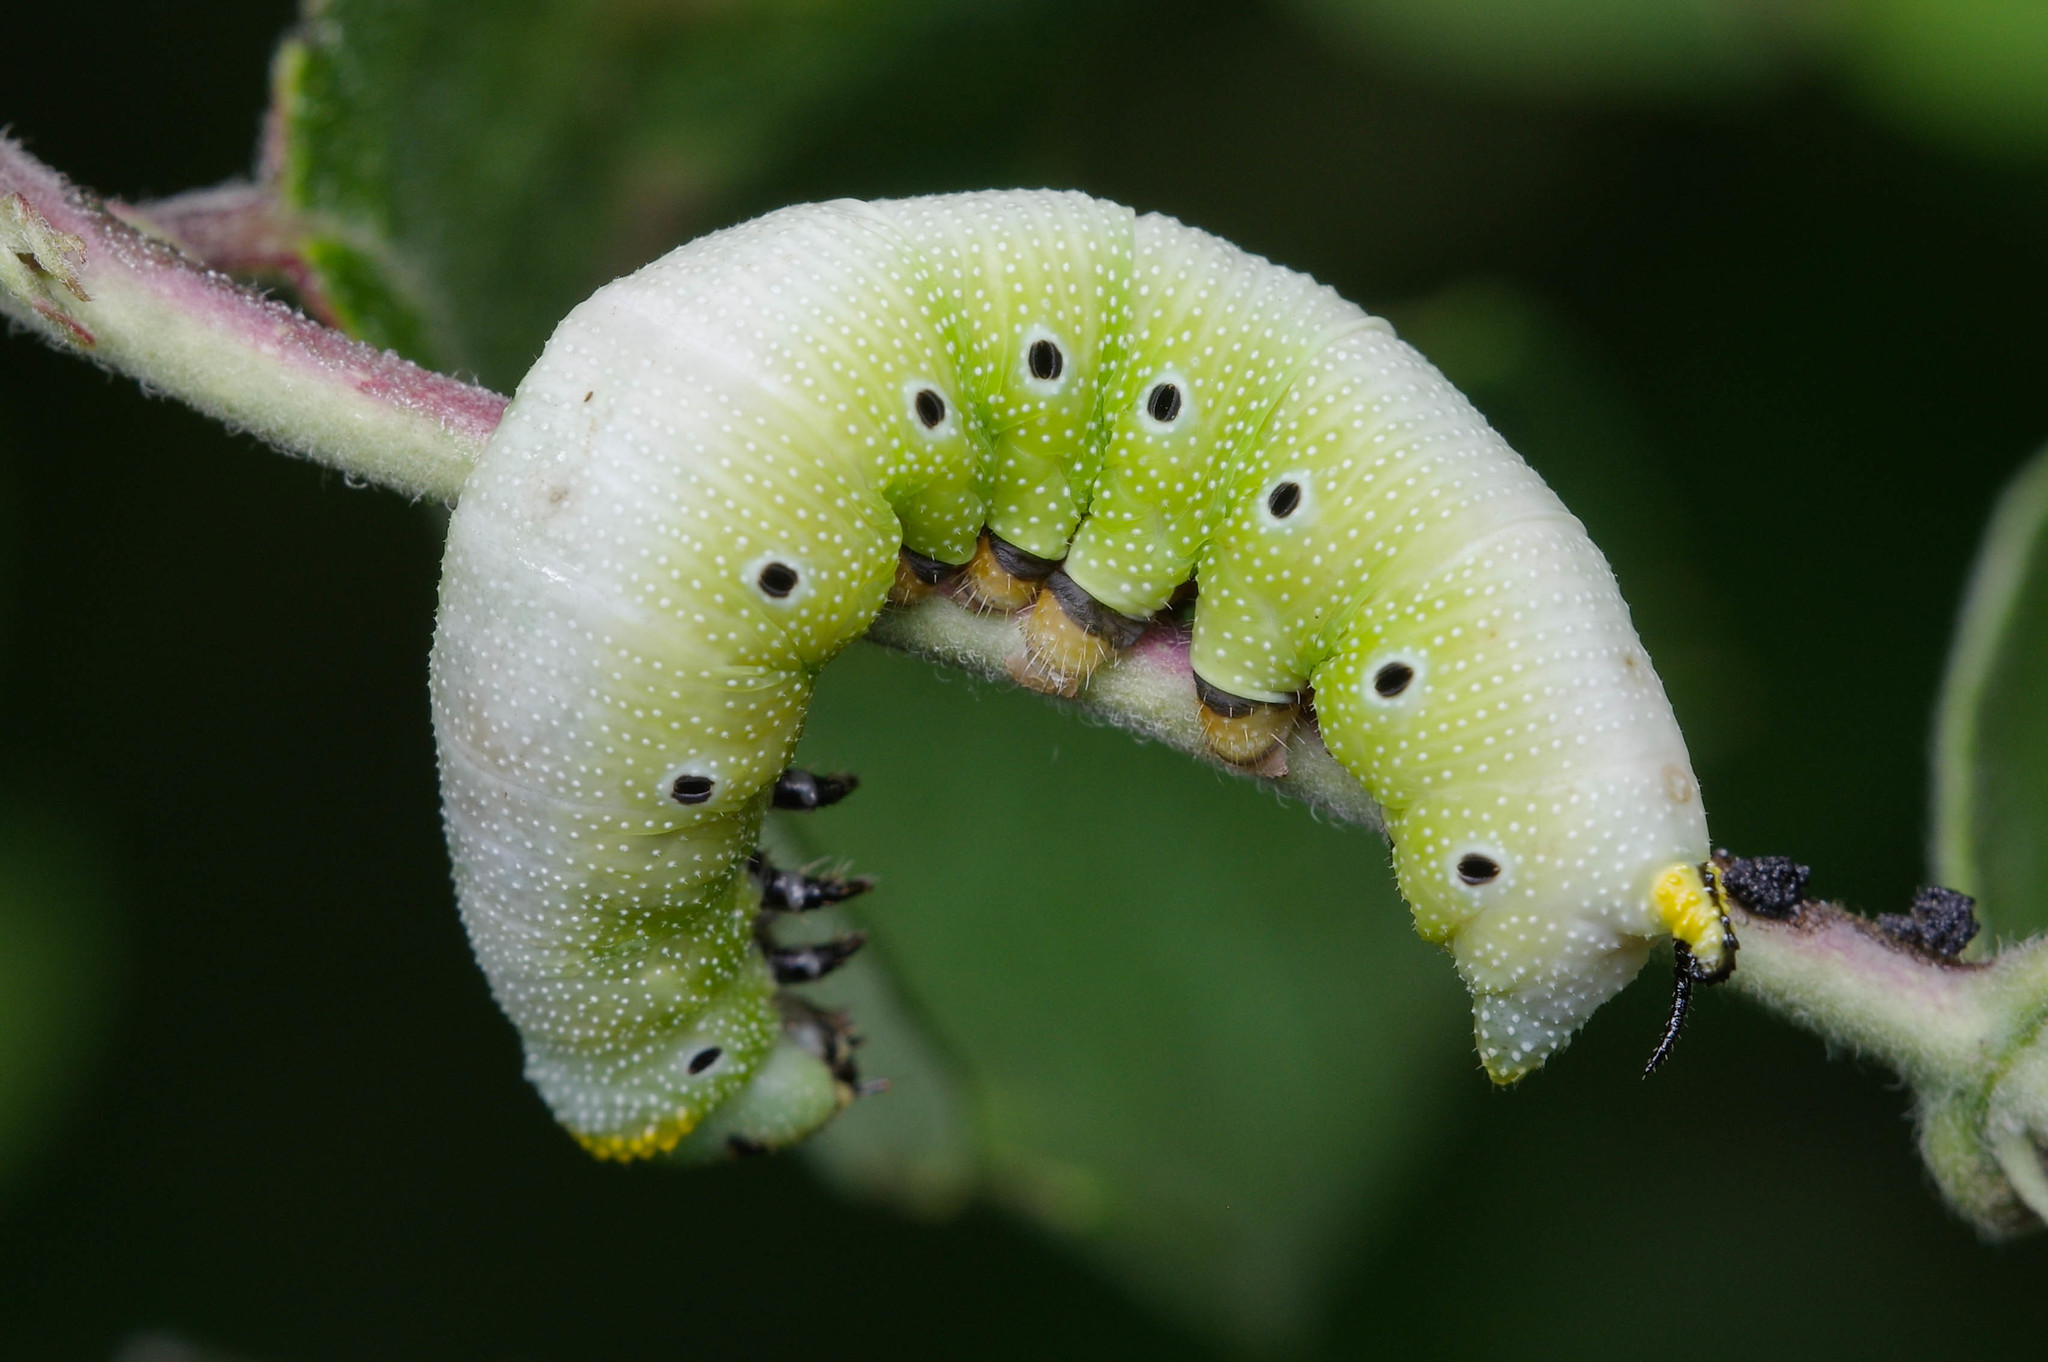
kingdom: Animalia
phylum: Arthropoda
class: Insecta
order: Lepidoptera
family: Sphingidae
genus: Hemaris
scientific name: Hemaris diffinis
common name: Bumblebee moth
